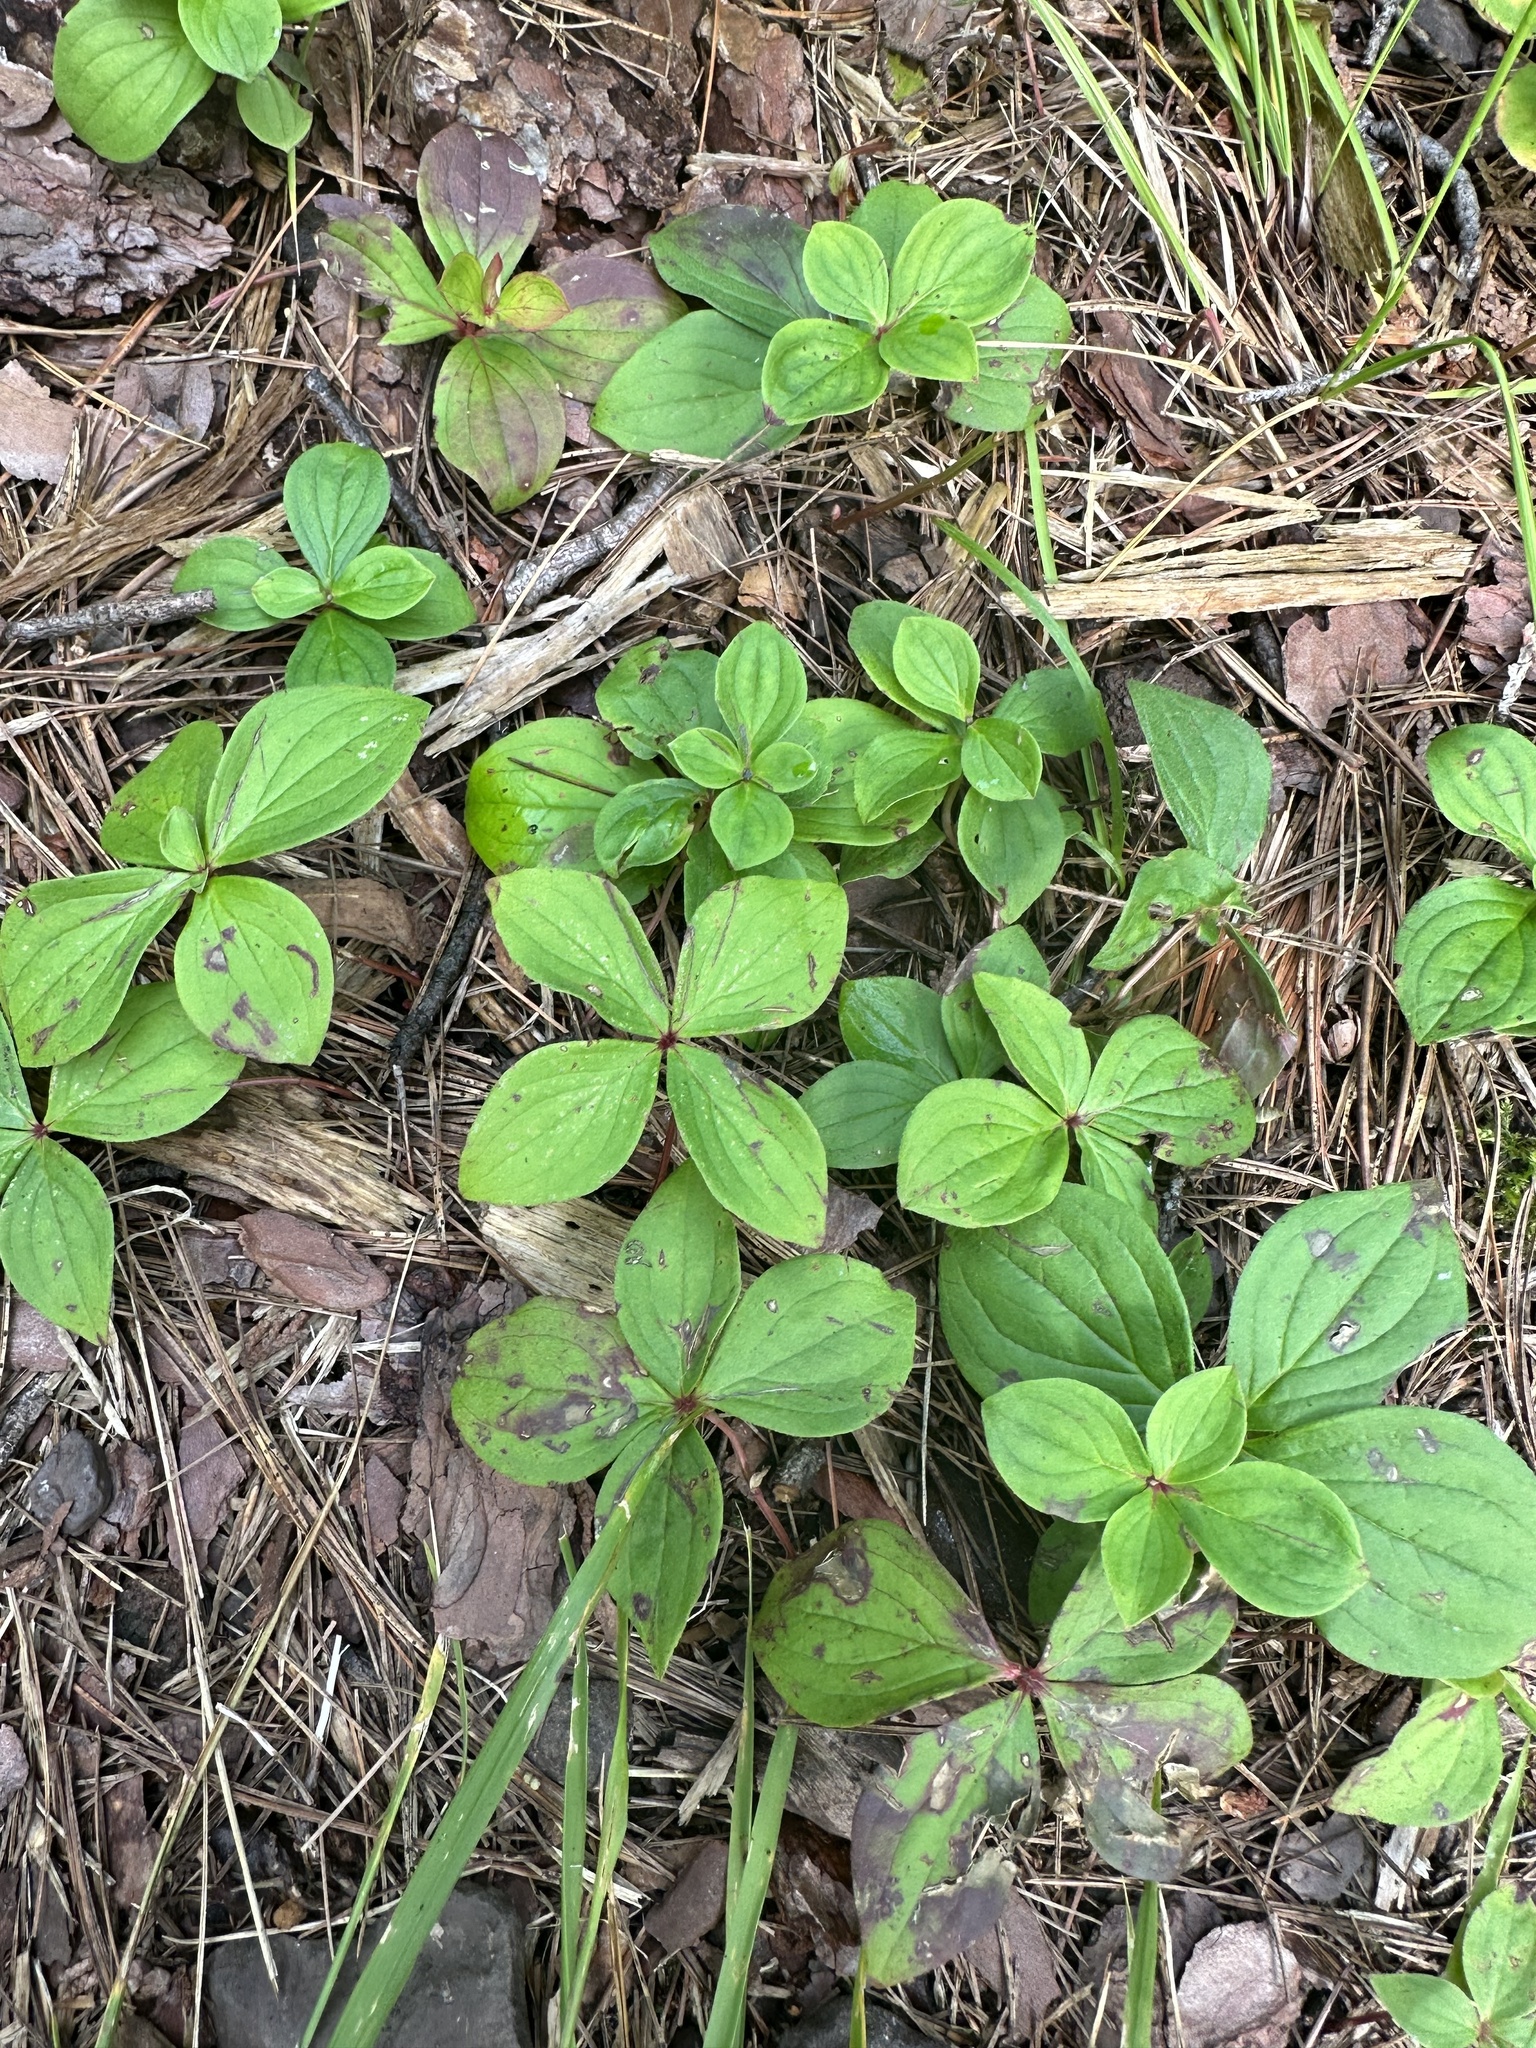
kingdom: Plantae
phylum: Tracheophyta
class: Magnoliopsida
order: Cornales
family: Cornaceae
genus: Cornus
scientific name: Cornus canadensis
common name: Creeping dogwood
